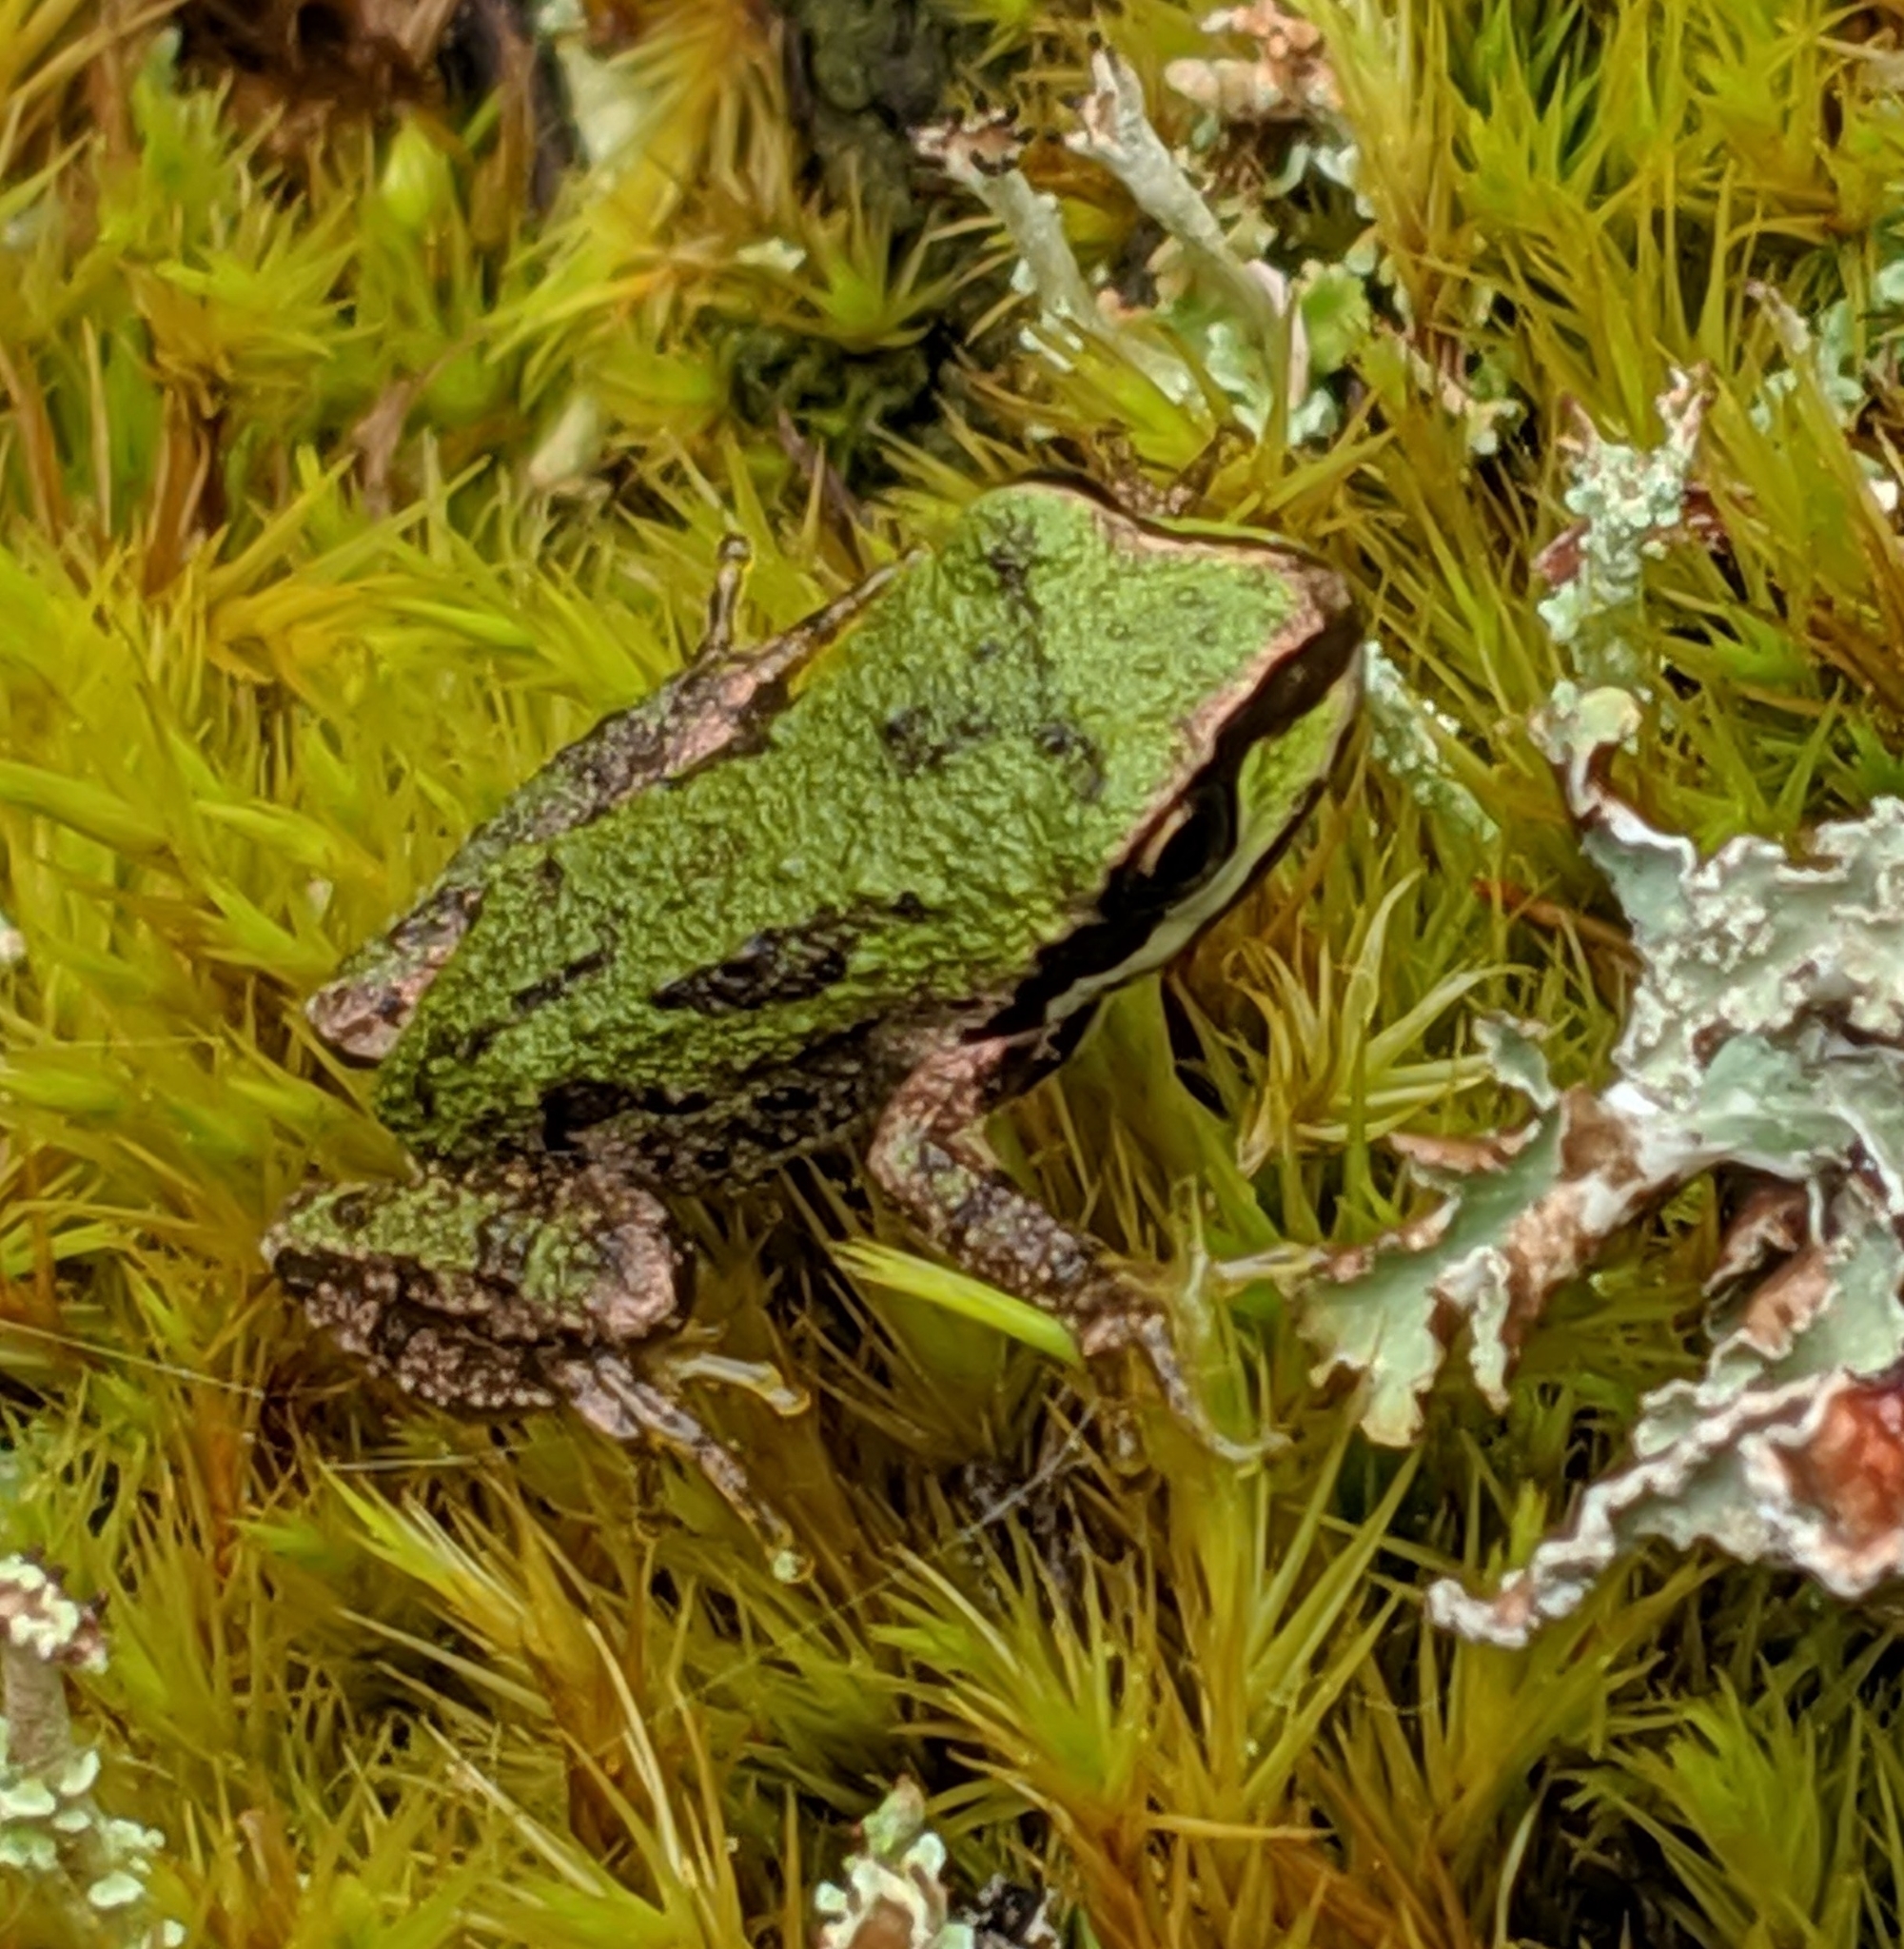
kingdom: Animalia
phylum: Chordata
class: Amphibia
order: Anura
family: Hylidae
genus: Pseudacris
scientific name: Pseudacris regilla
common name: Pacific chorus frog
